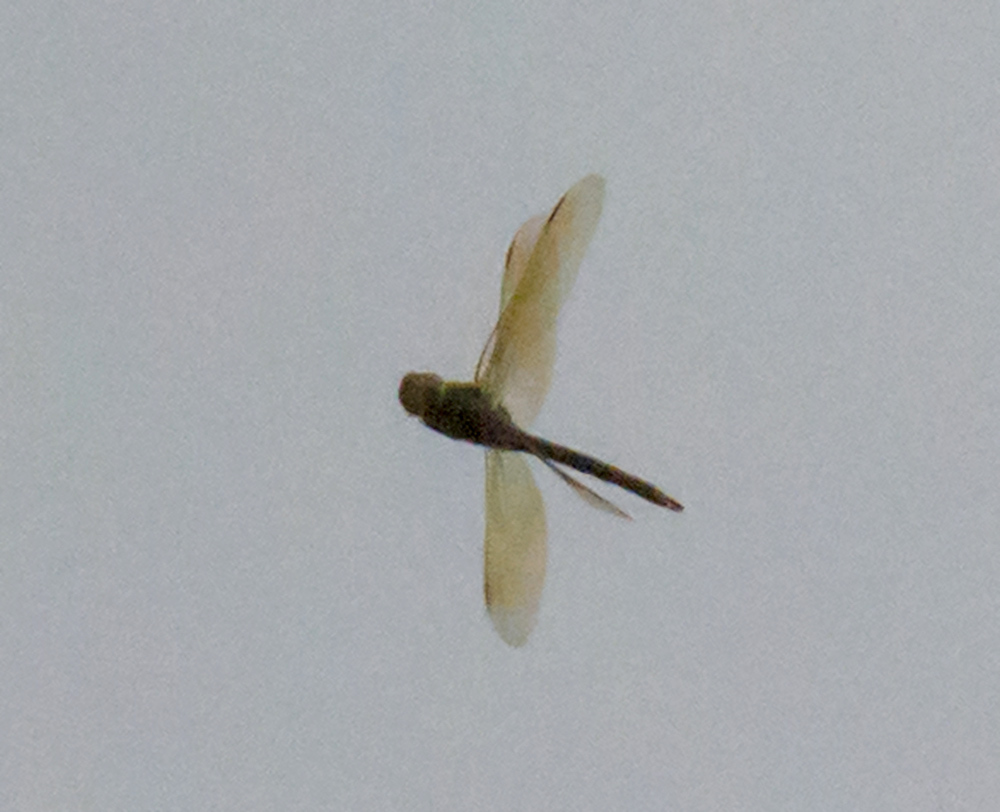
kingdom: Animalia
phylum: Arthropoda
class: Insecta
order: Odonata
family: Aeshnidae
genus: Anax
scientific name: Anax junius
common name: Common green darner
